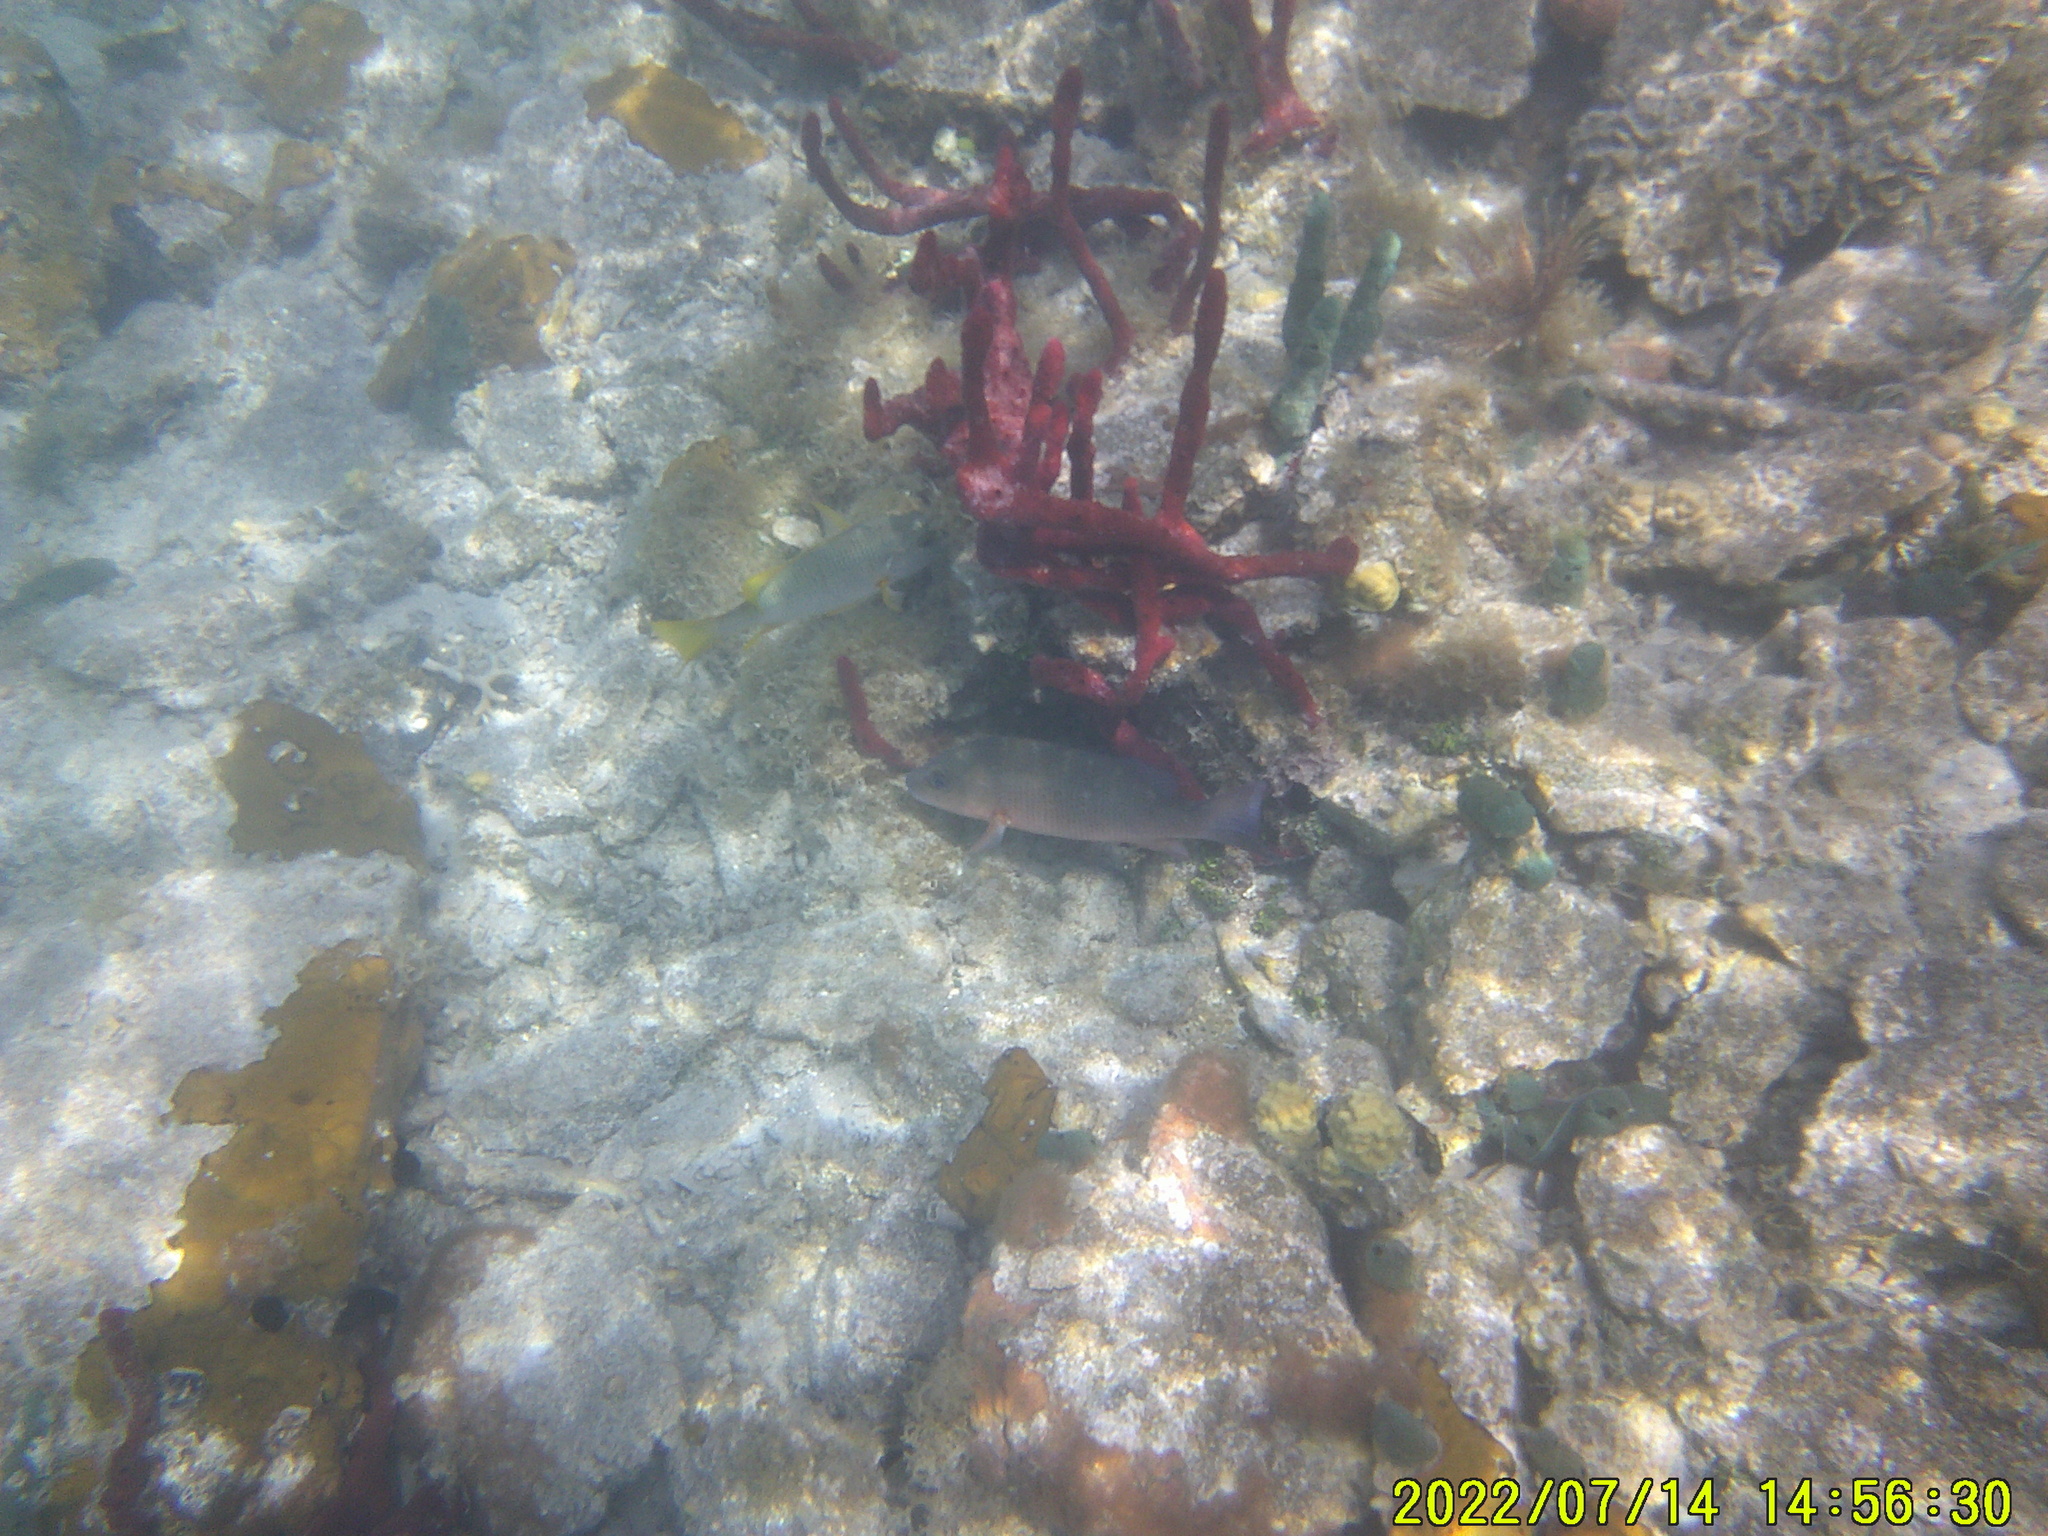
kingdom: Animalia
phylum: Porifera
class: Demospongiae
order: Haplosclerida
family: Niphatidae
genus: Amphimedon
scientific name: Amphimedon compressa
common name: Red sponge
